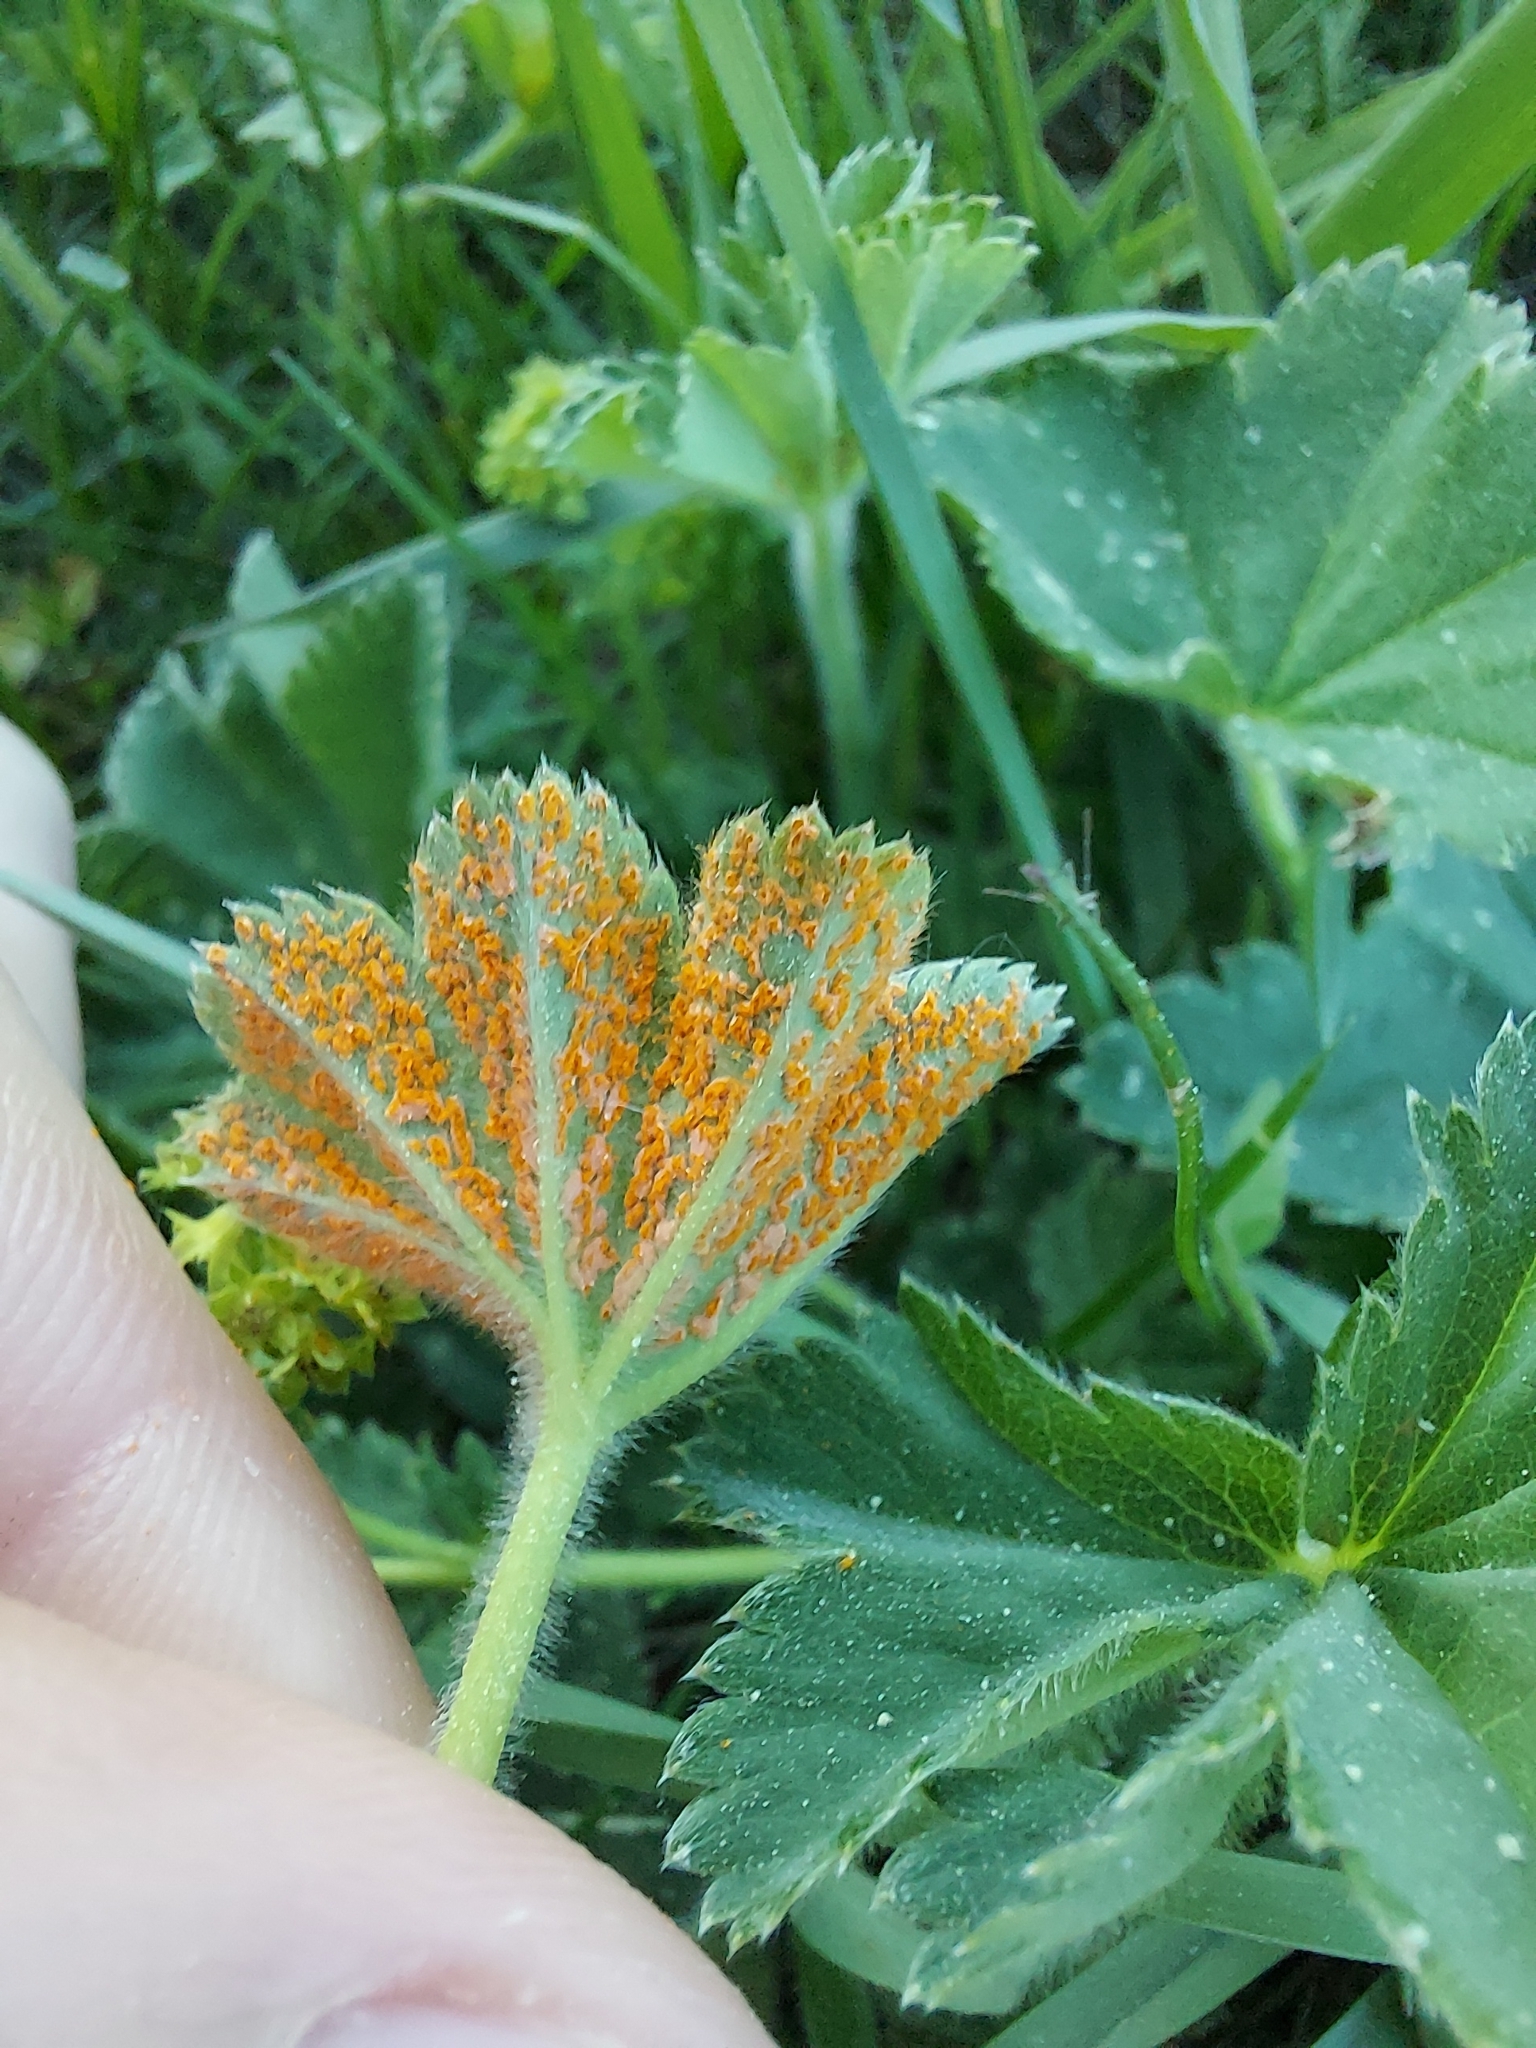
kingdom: Fungi
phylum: Basidiomycota
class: Pucciniomycetes
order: Pucciniales
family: Phragmidiaceae
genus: Trachyspora
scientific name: Trachyspora alchemillae
